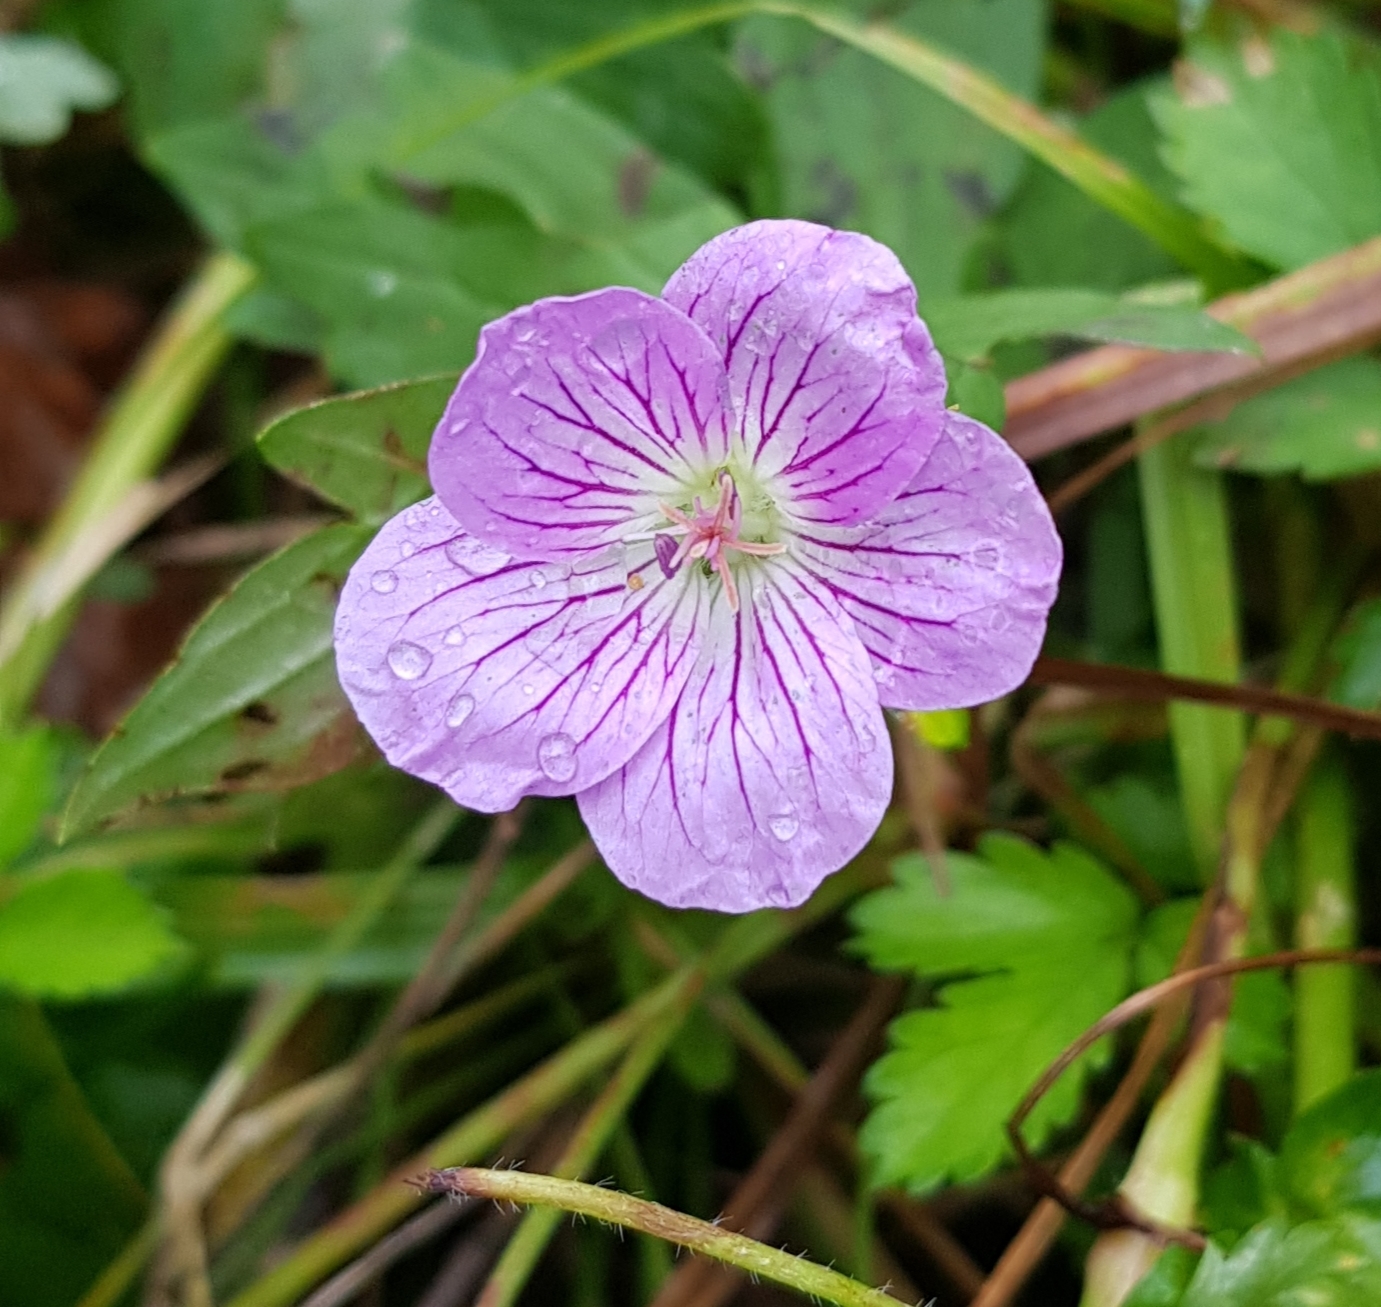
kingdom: Plantae
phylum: Tracheophyta
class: Magnoliopsida
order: Geraniales
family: Geraniaceae
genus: Geranium
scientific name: Geranium wlassovianum
